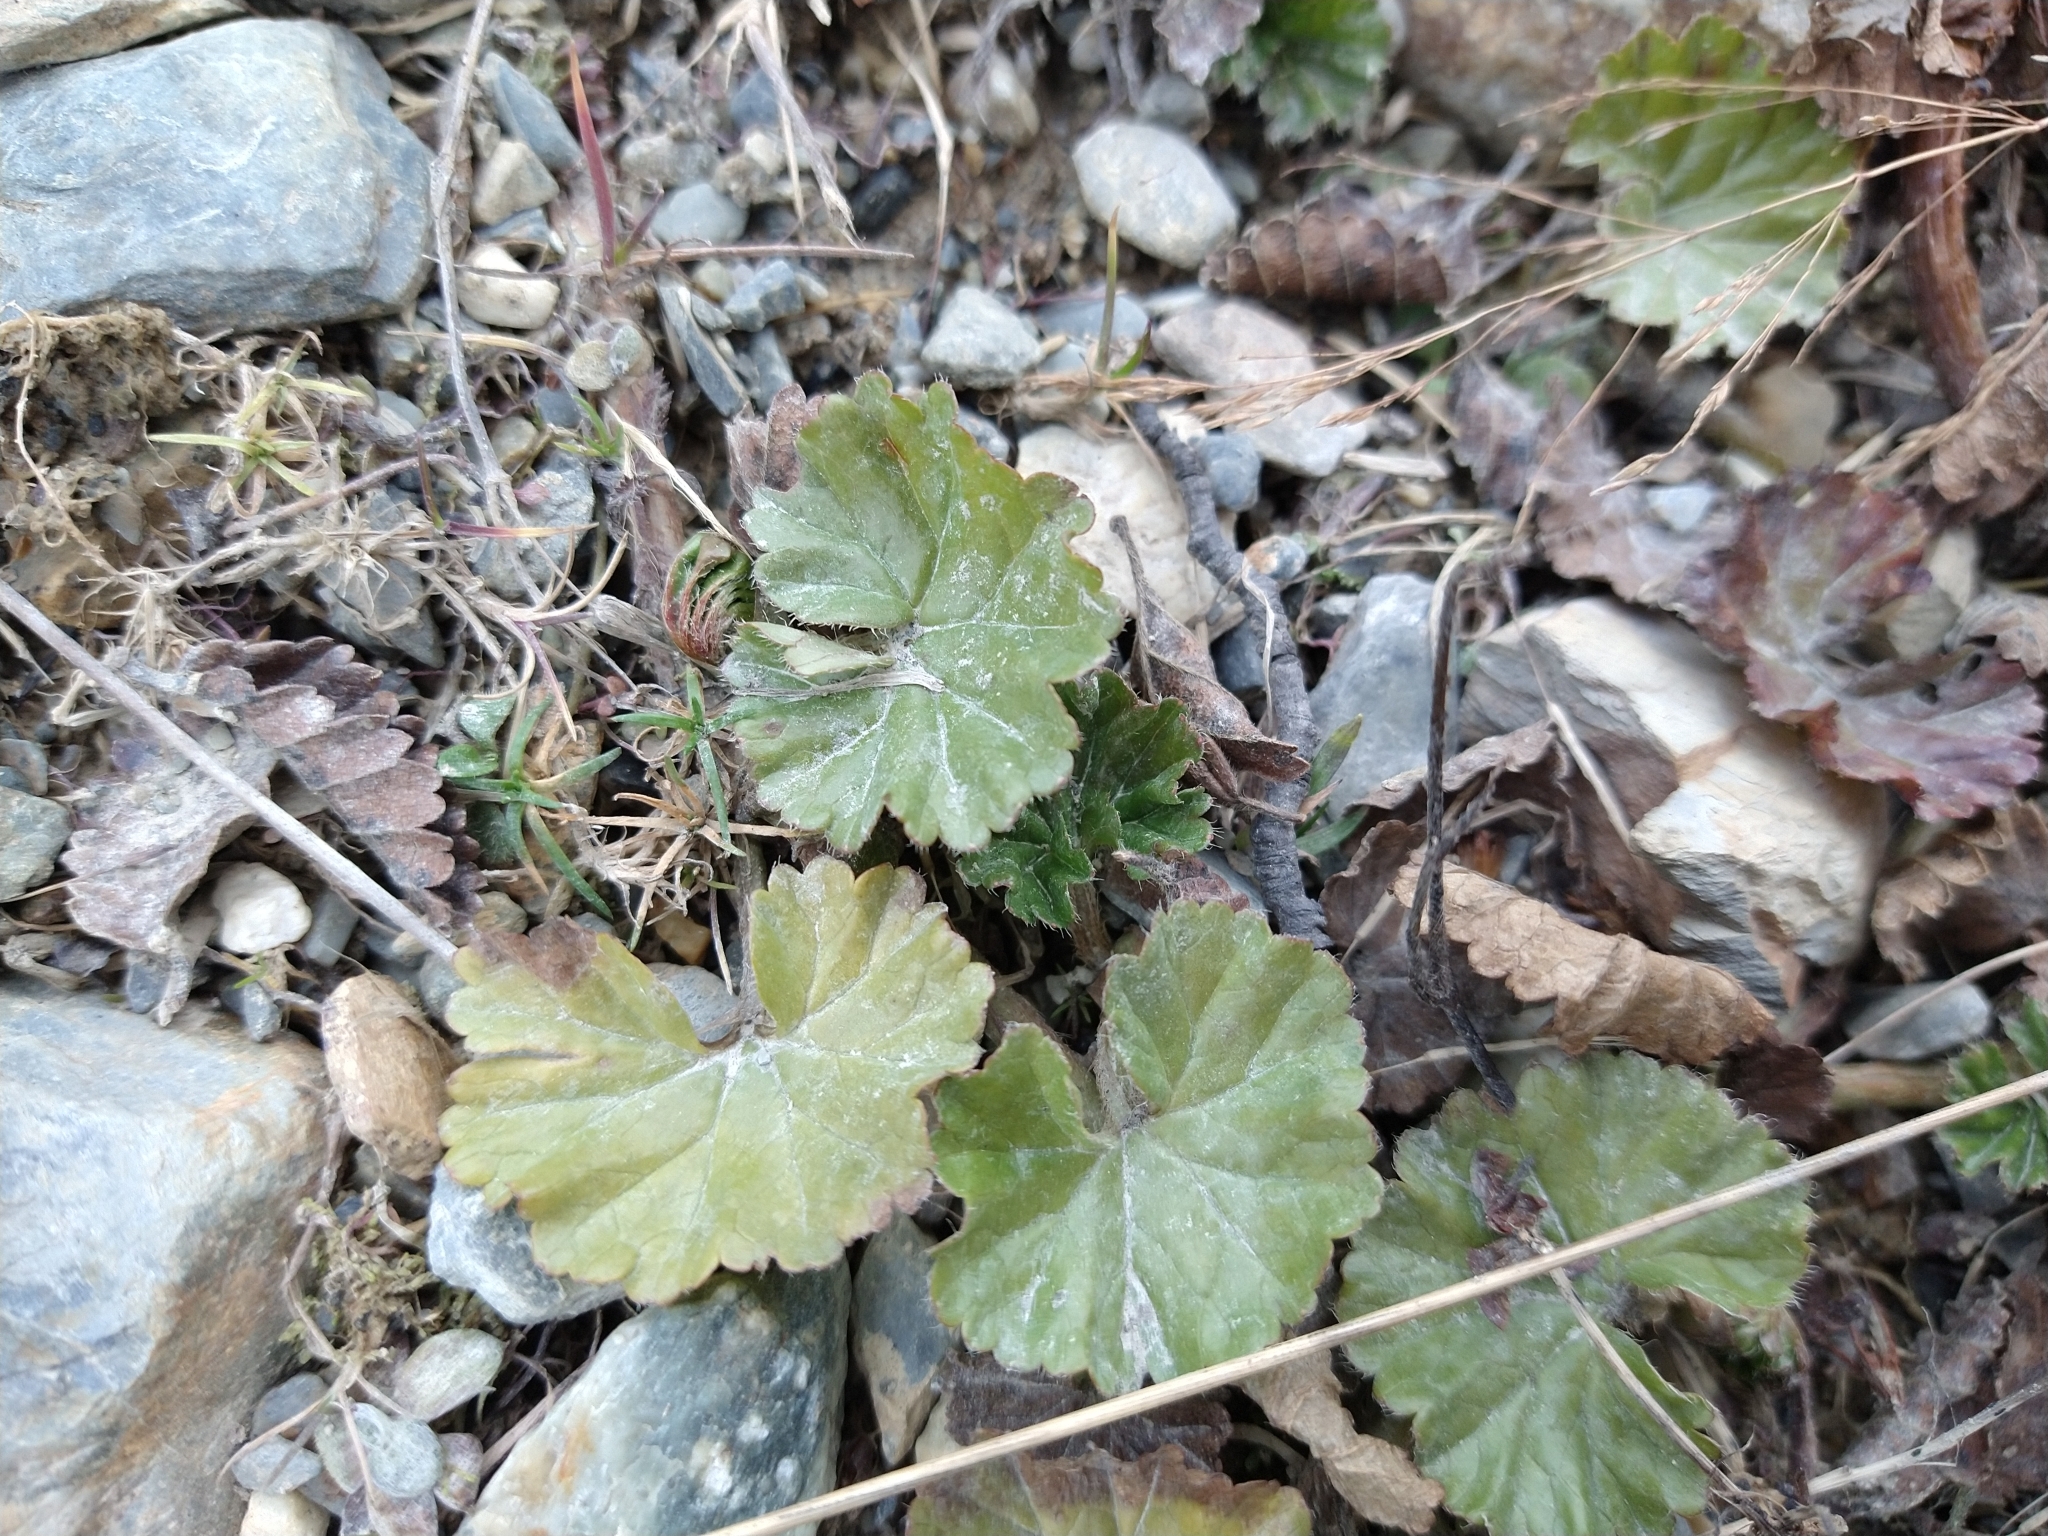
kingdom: Plantae
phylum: Tracheophyta
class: Magnoliopsida
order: Gunnerales
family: Gunneraceae
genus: Gunnera
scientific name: Gunnera magellanica
